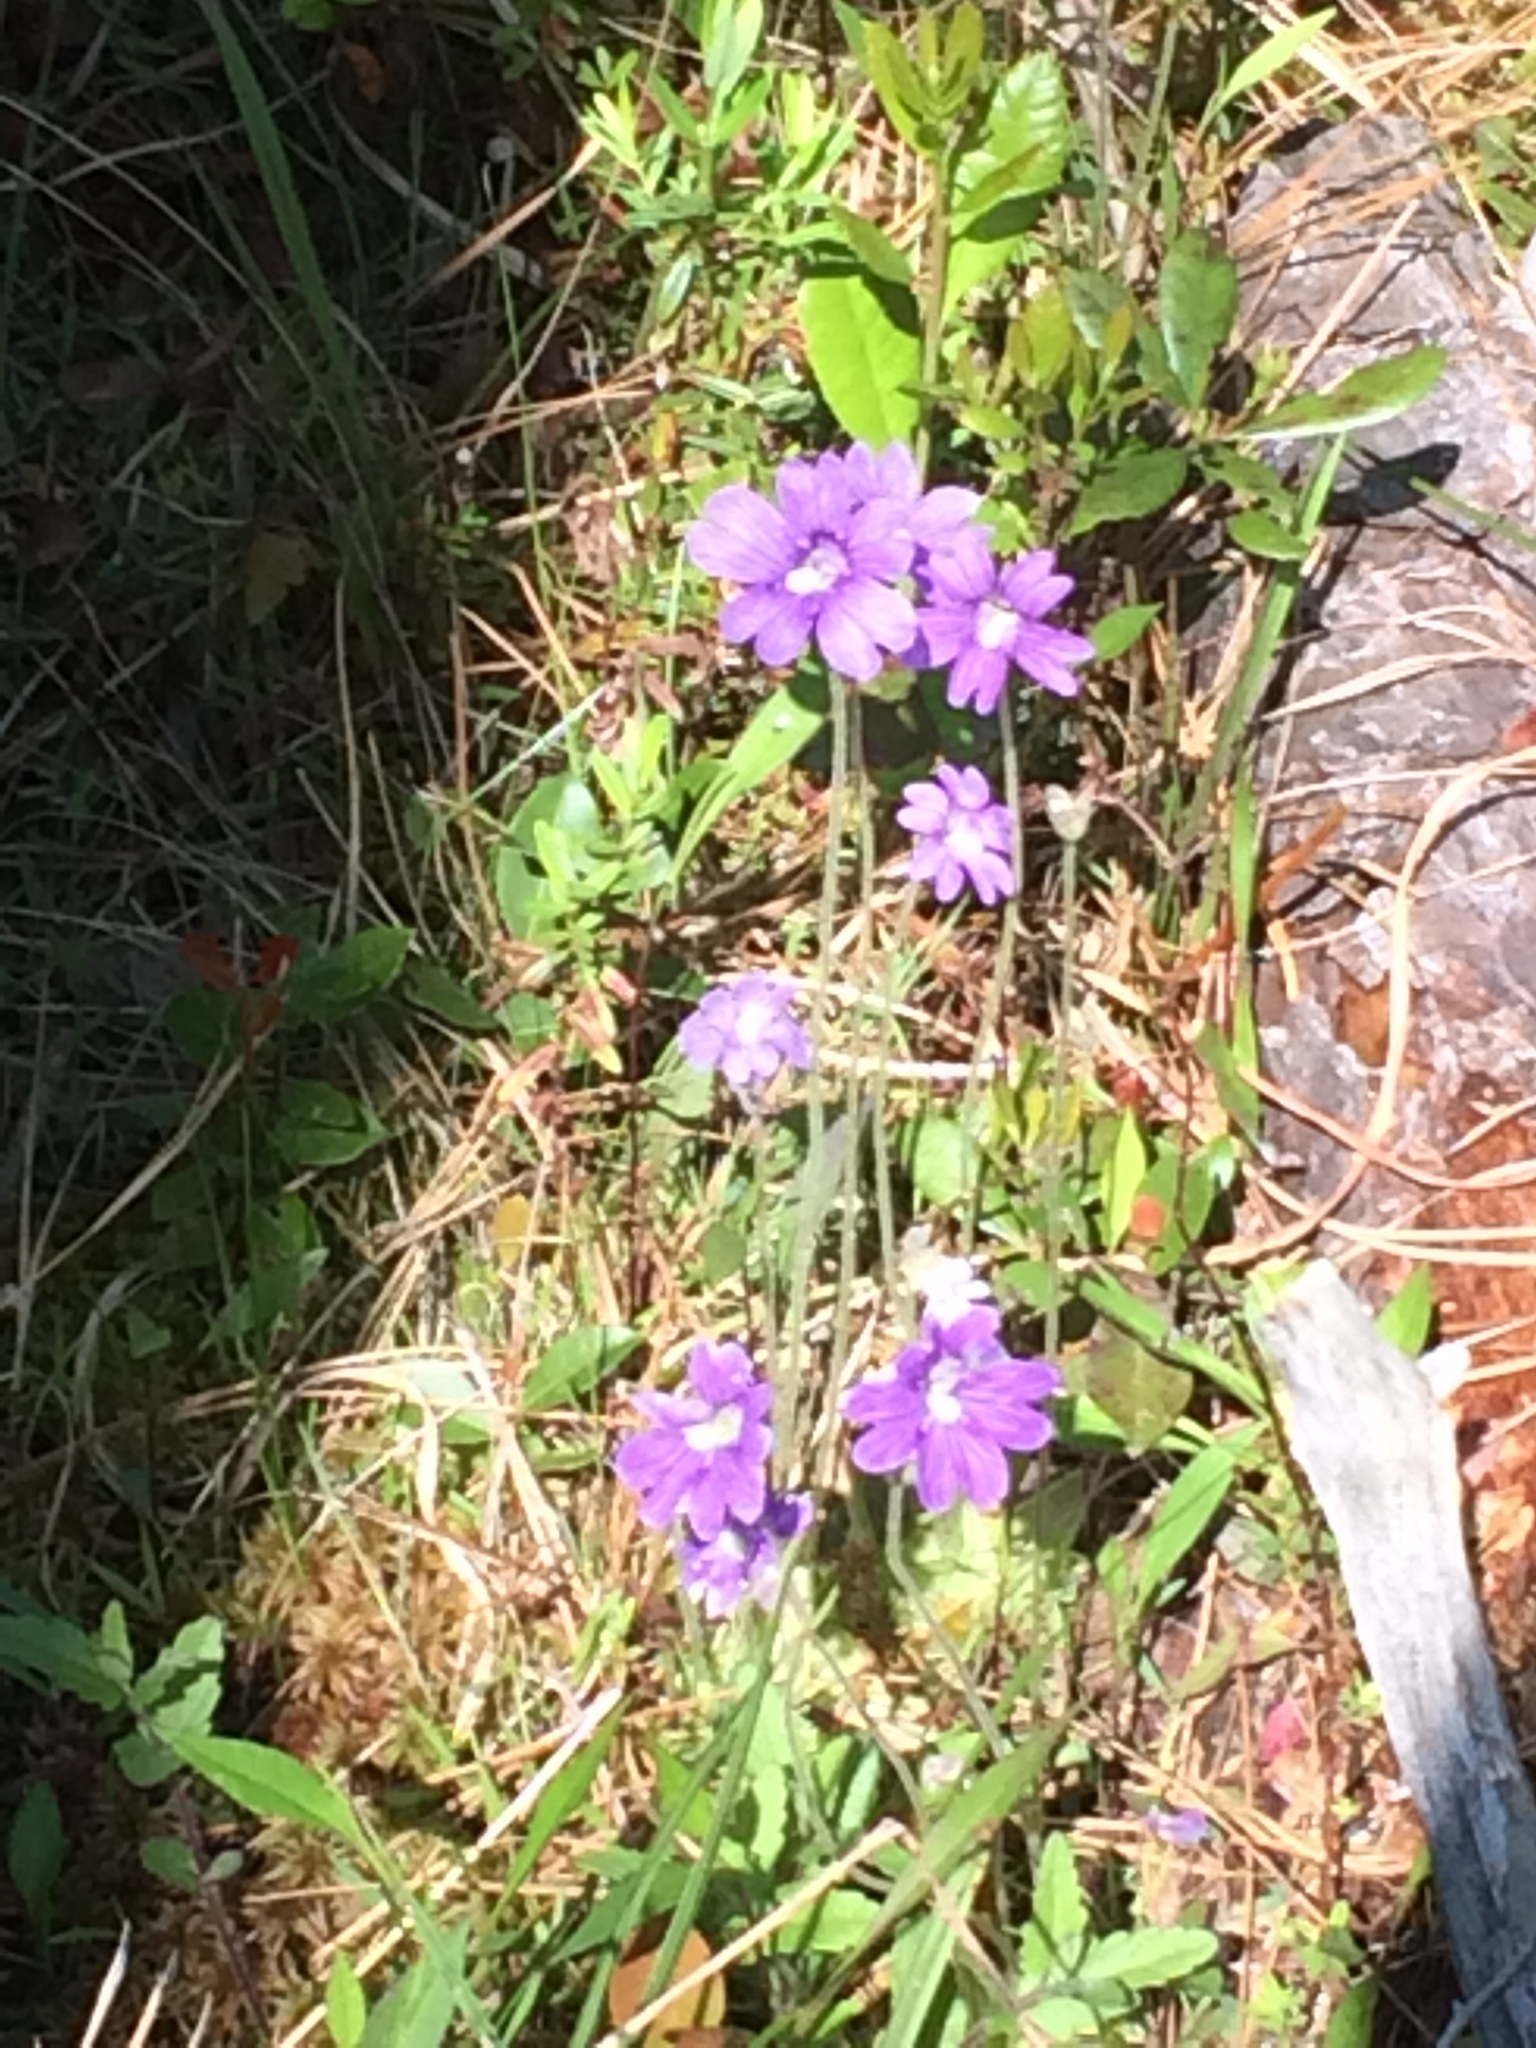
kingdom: Plantae
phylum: Tracheophyta
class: Magnoliopsida
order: Lamiales
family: Lentibulariaceae
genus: Pinguicula
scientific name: Pinguicula caerulea
